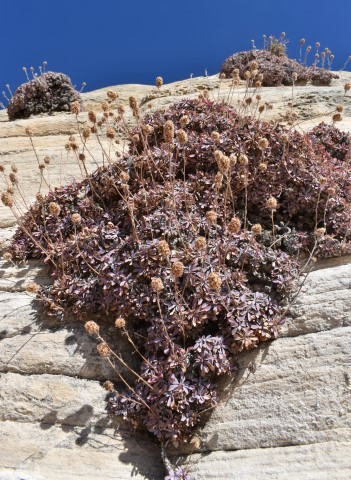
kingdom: Plantae
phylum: Tracheophyta
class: Magnoliopsida
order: Rosales
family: Rosaceae
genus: Petrophytum
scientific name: Petrophytum caespitosum
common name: Mat rockspirea
